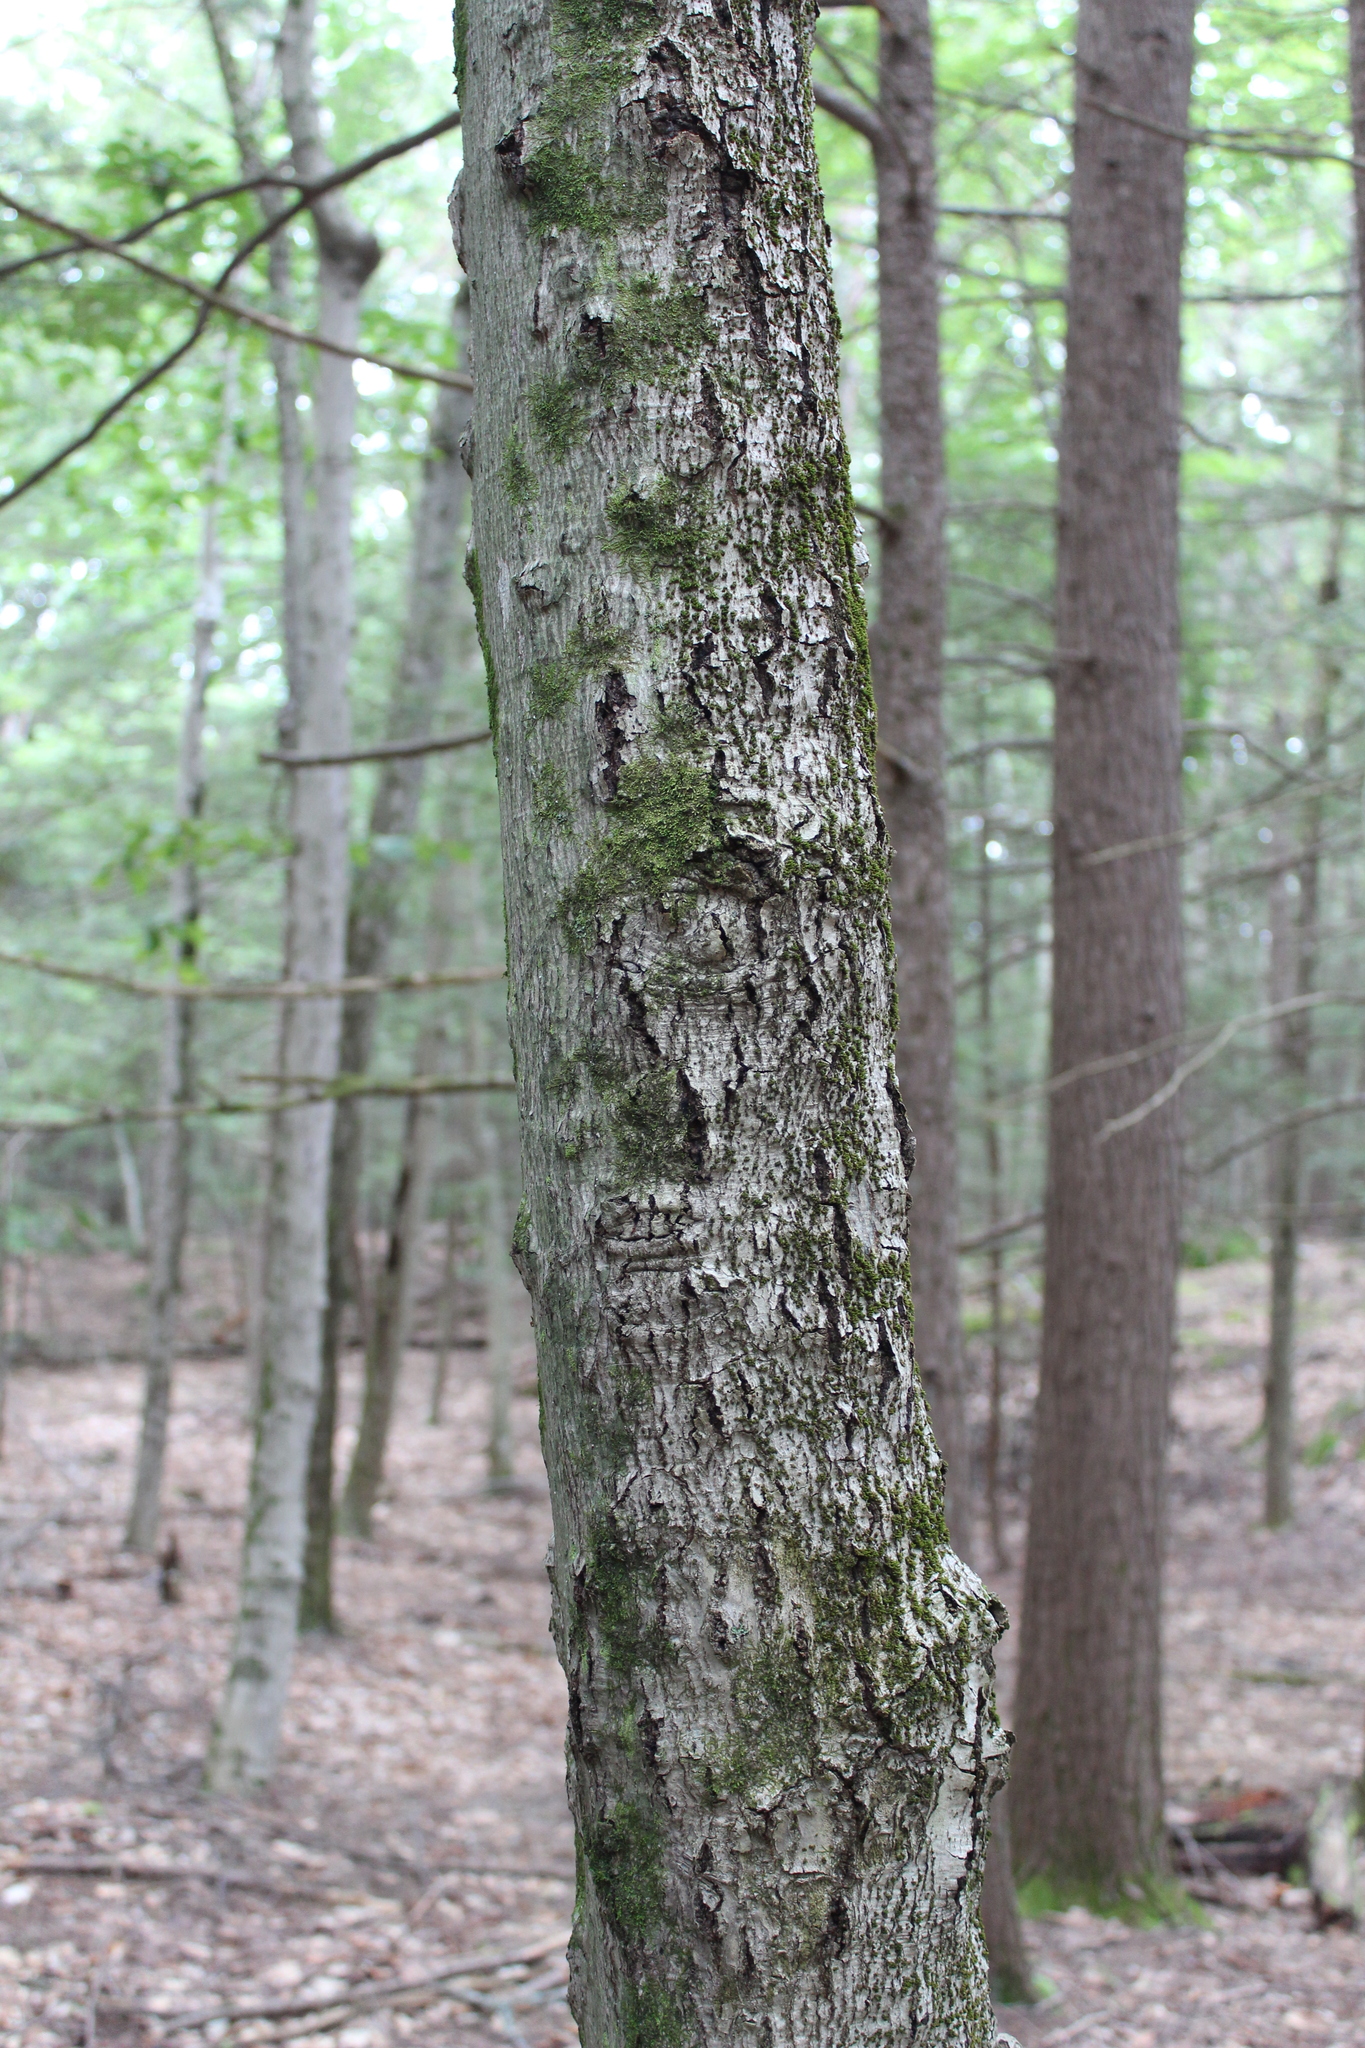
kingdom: Plantae
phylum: Tracheophyta
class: Magnoliopsida
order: Fagales
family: Fagaceae
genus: Fagus
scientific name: Fagus grandifolia
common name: American beech
